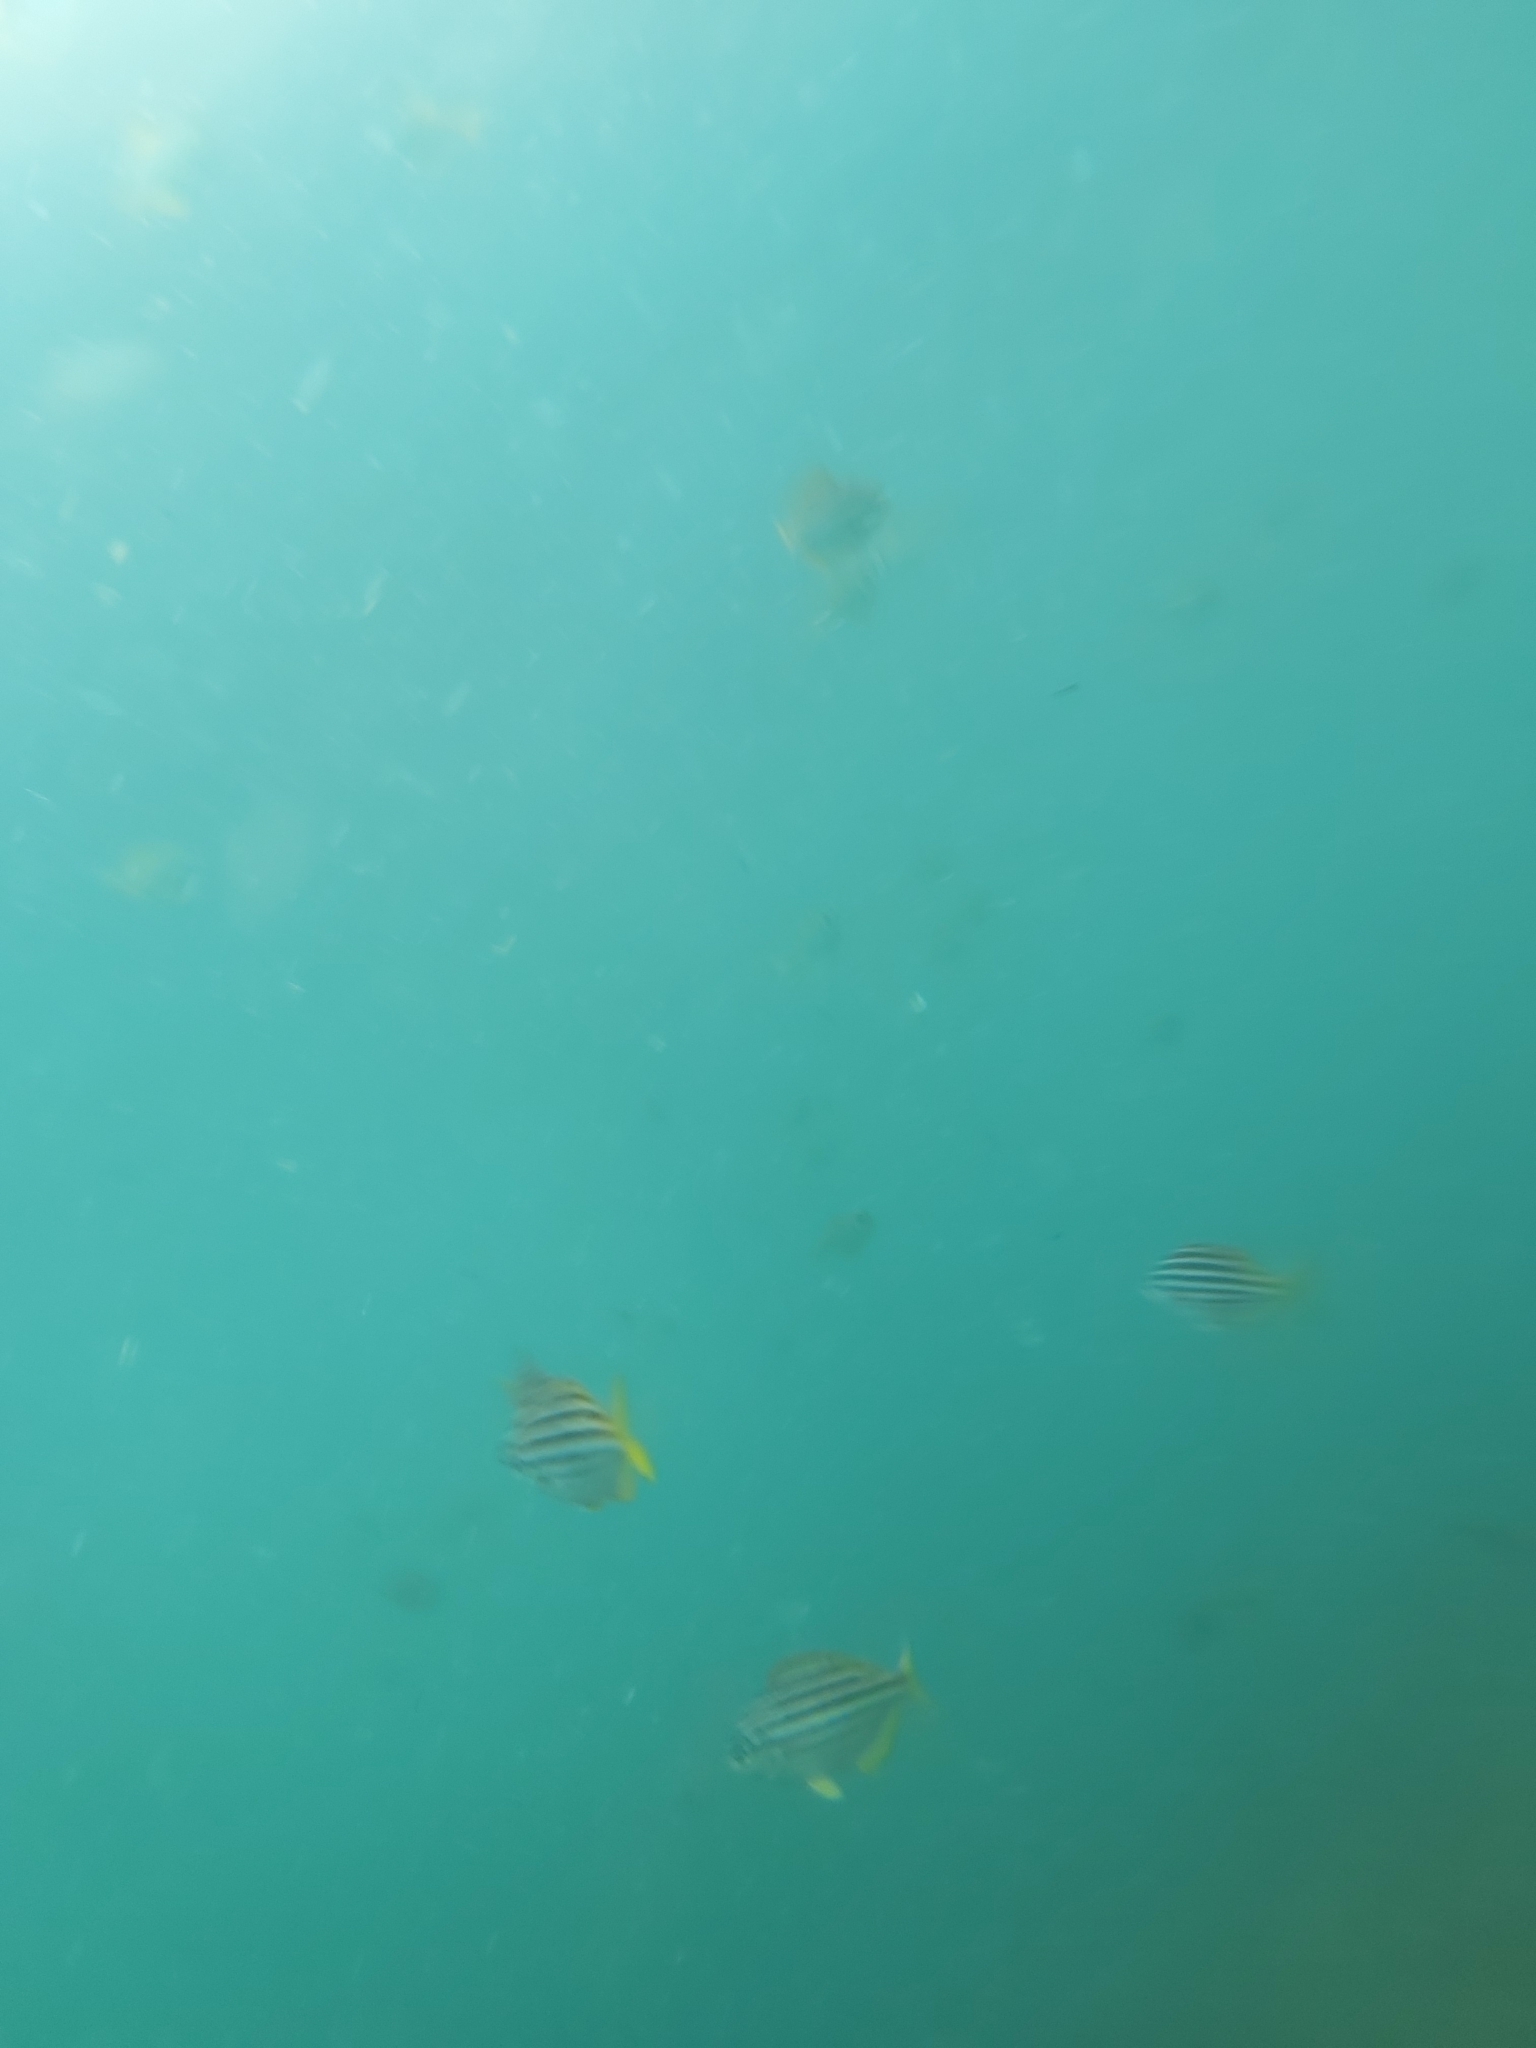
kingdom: Animalia
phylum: Chordata
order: Perciformes
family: Kyphosidae
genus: Atypichthys
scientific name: Atypichthys strigatus
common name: Australian mado
